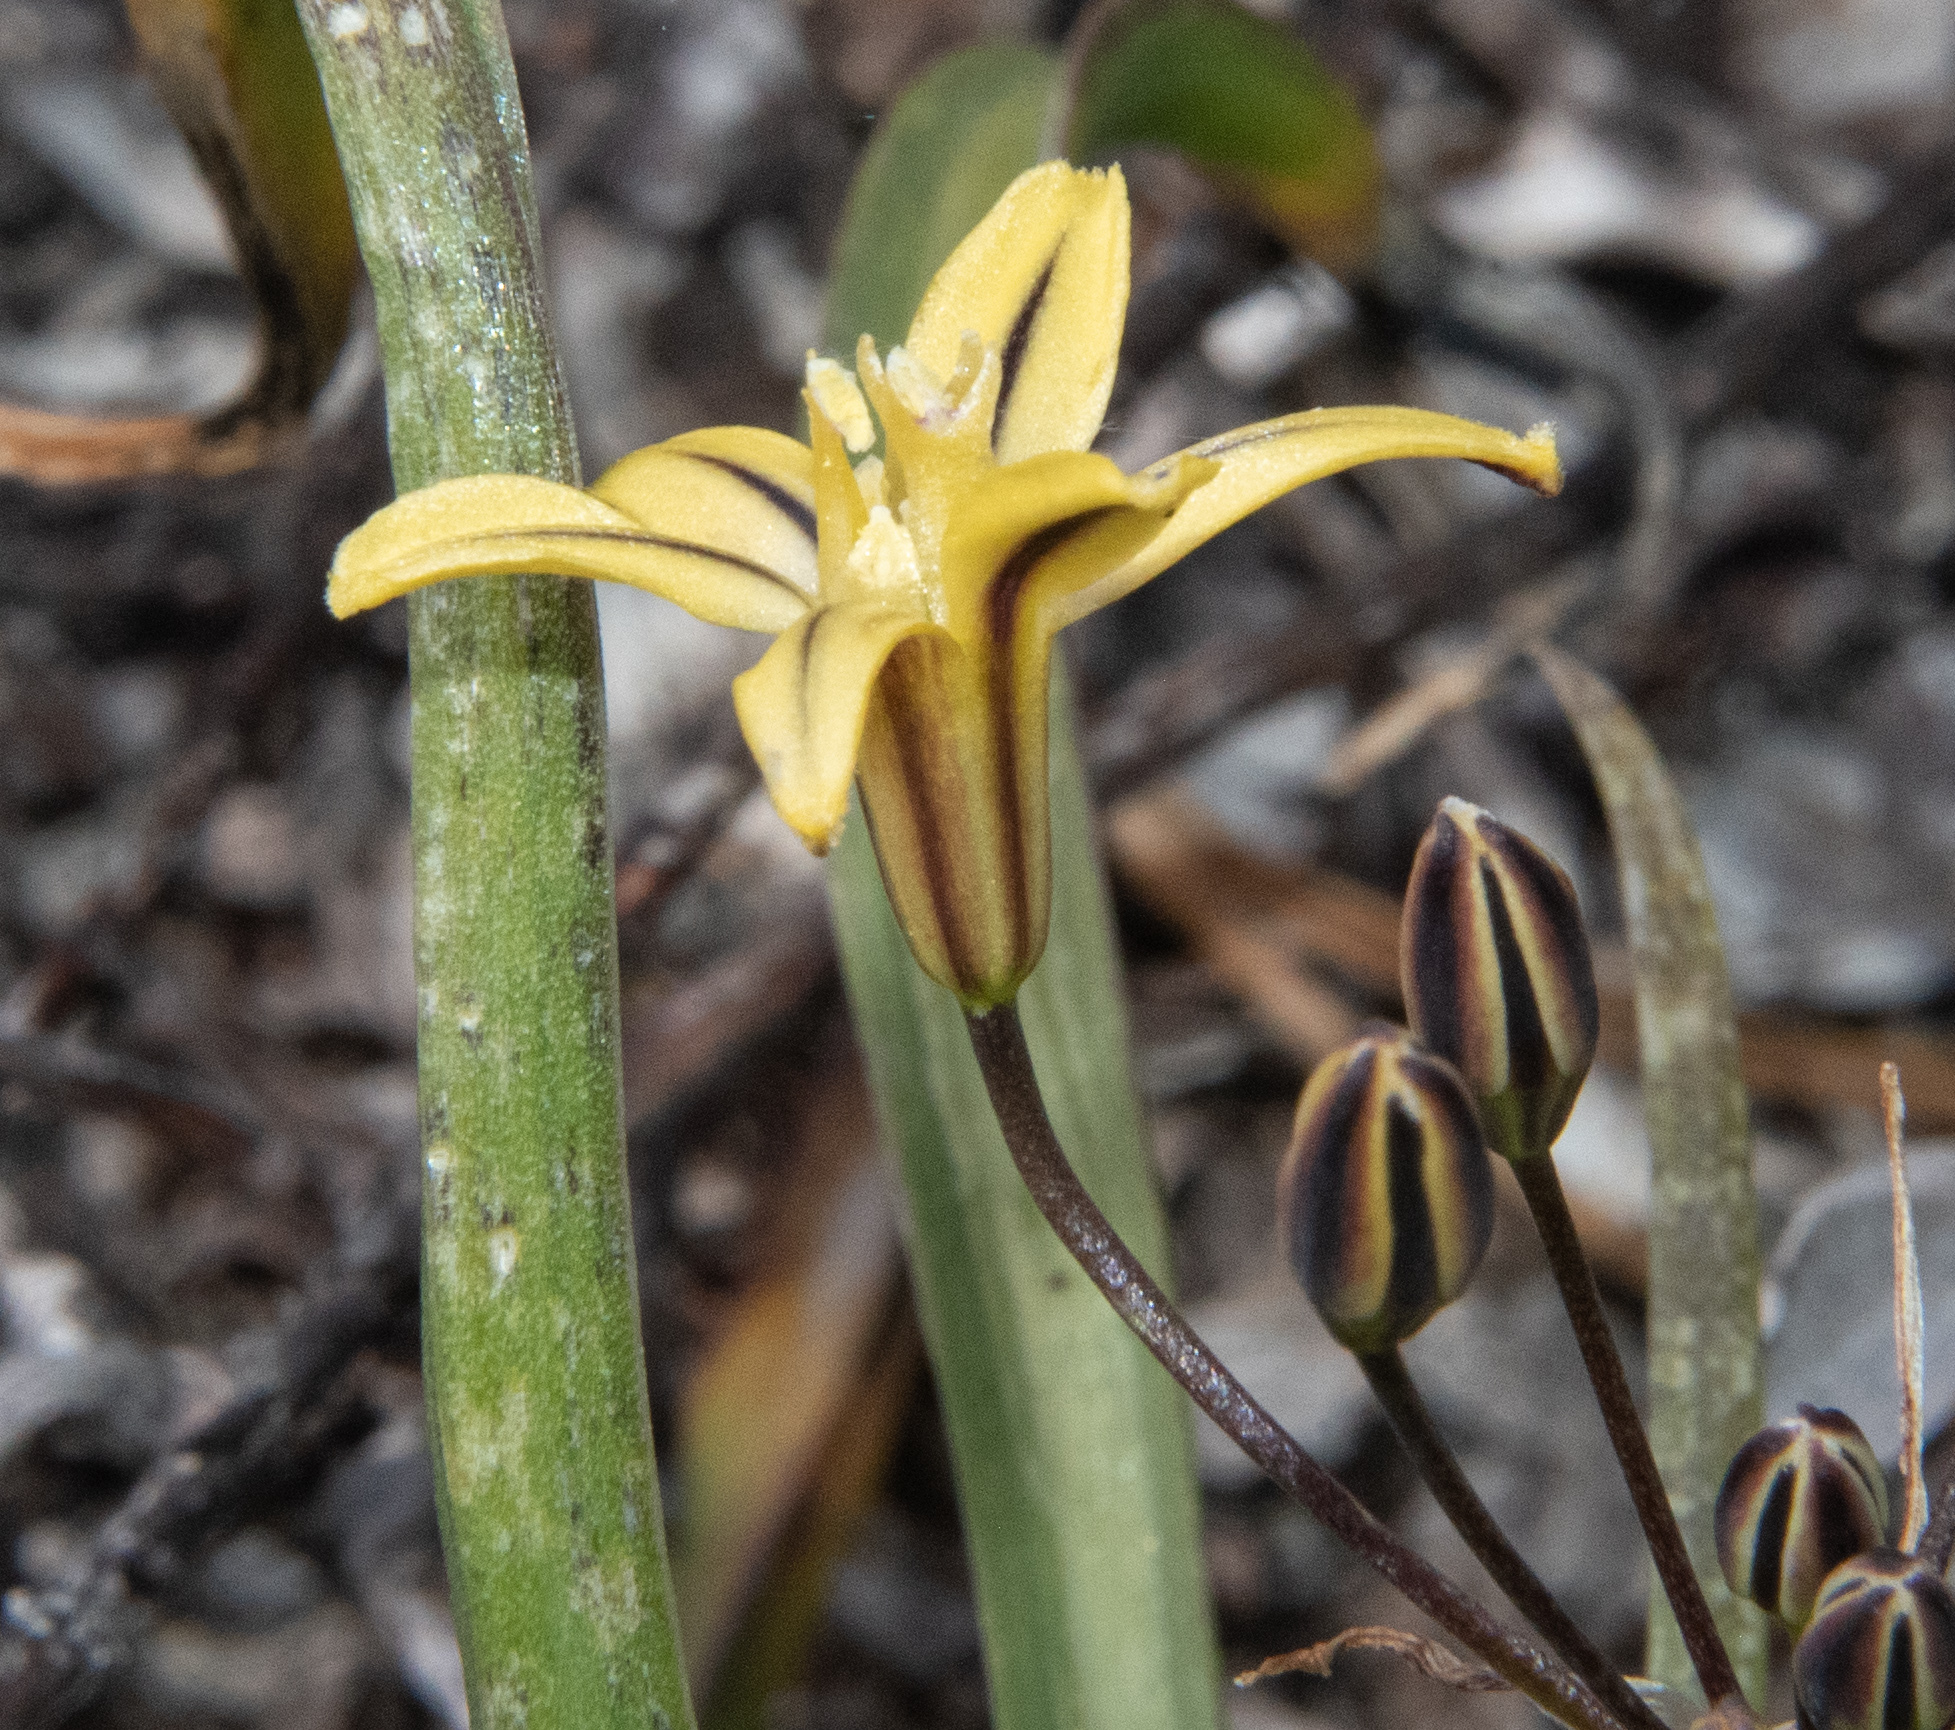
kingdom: Plantae
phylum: Tracheophyta
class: Liliopsida
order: Asparagales
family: Asparagaceae
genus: Triteleia
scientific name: Triteleia ixioides
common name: Yellow-brodiaea
